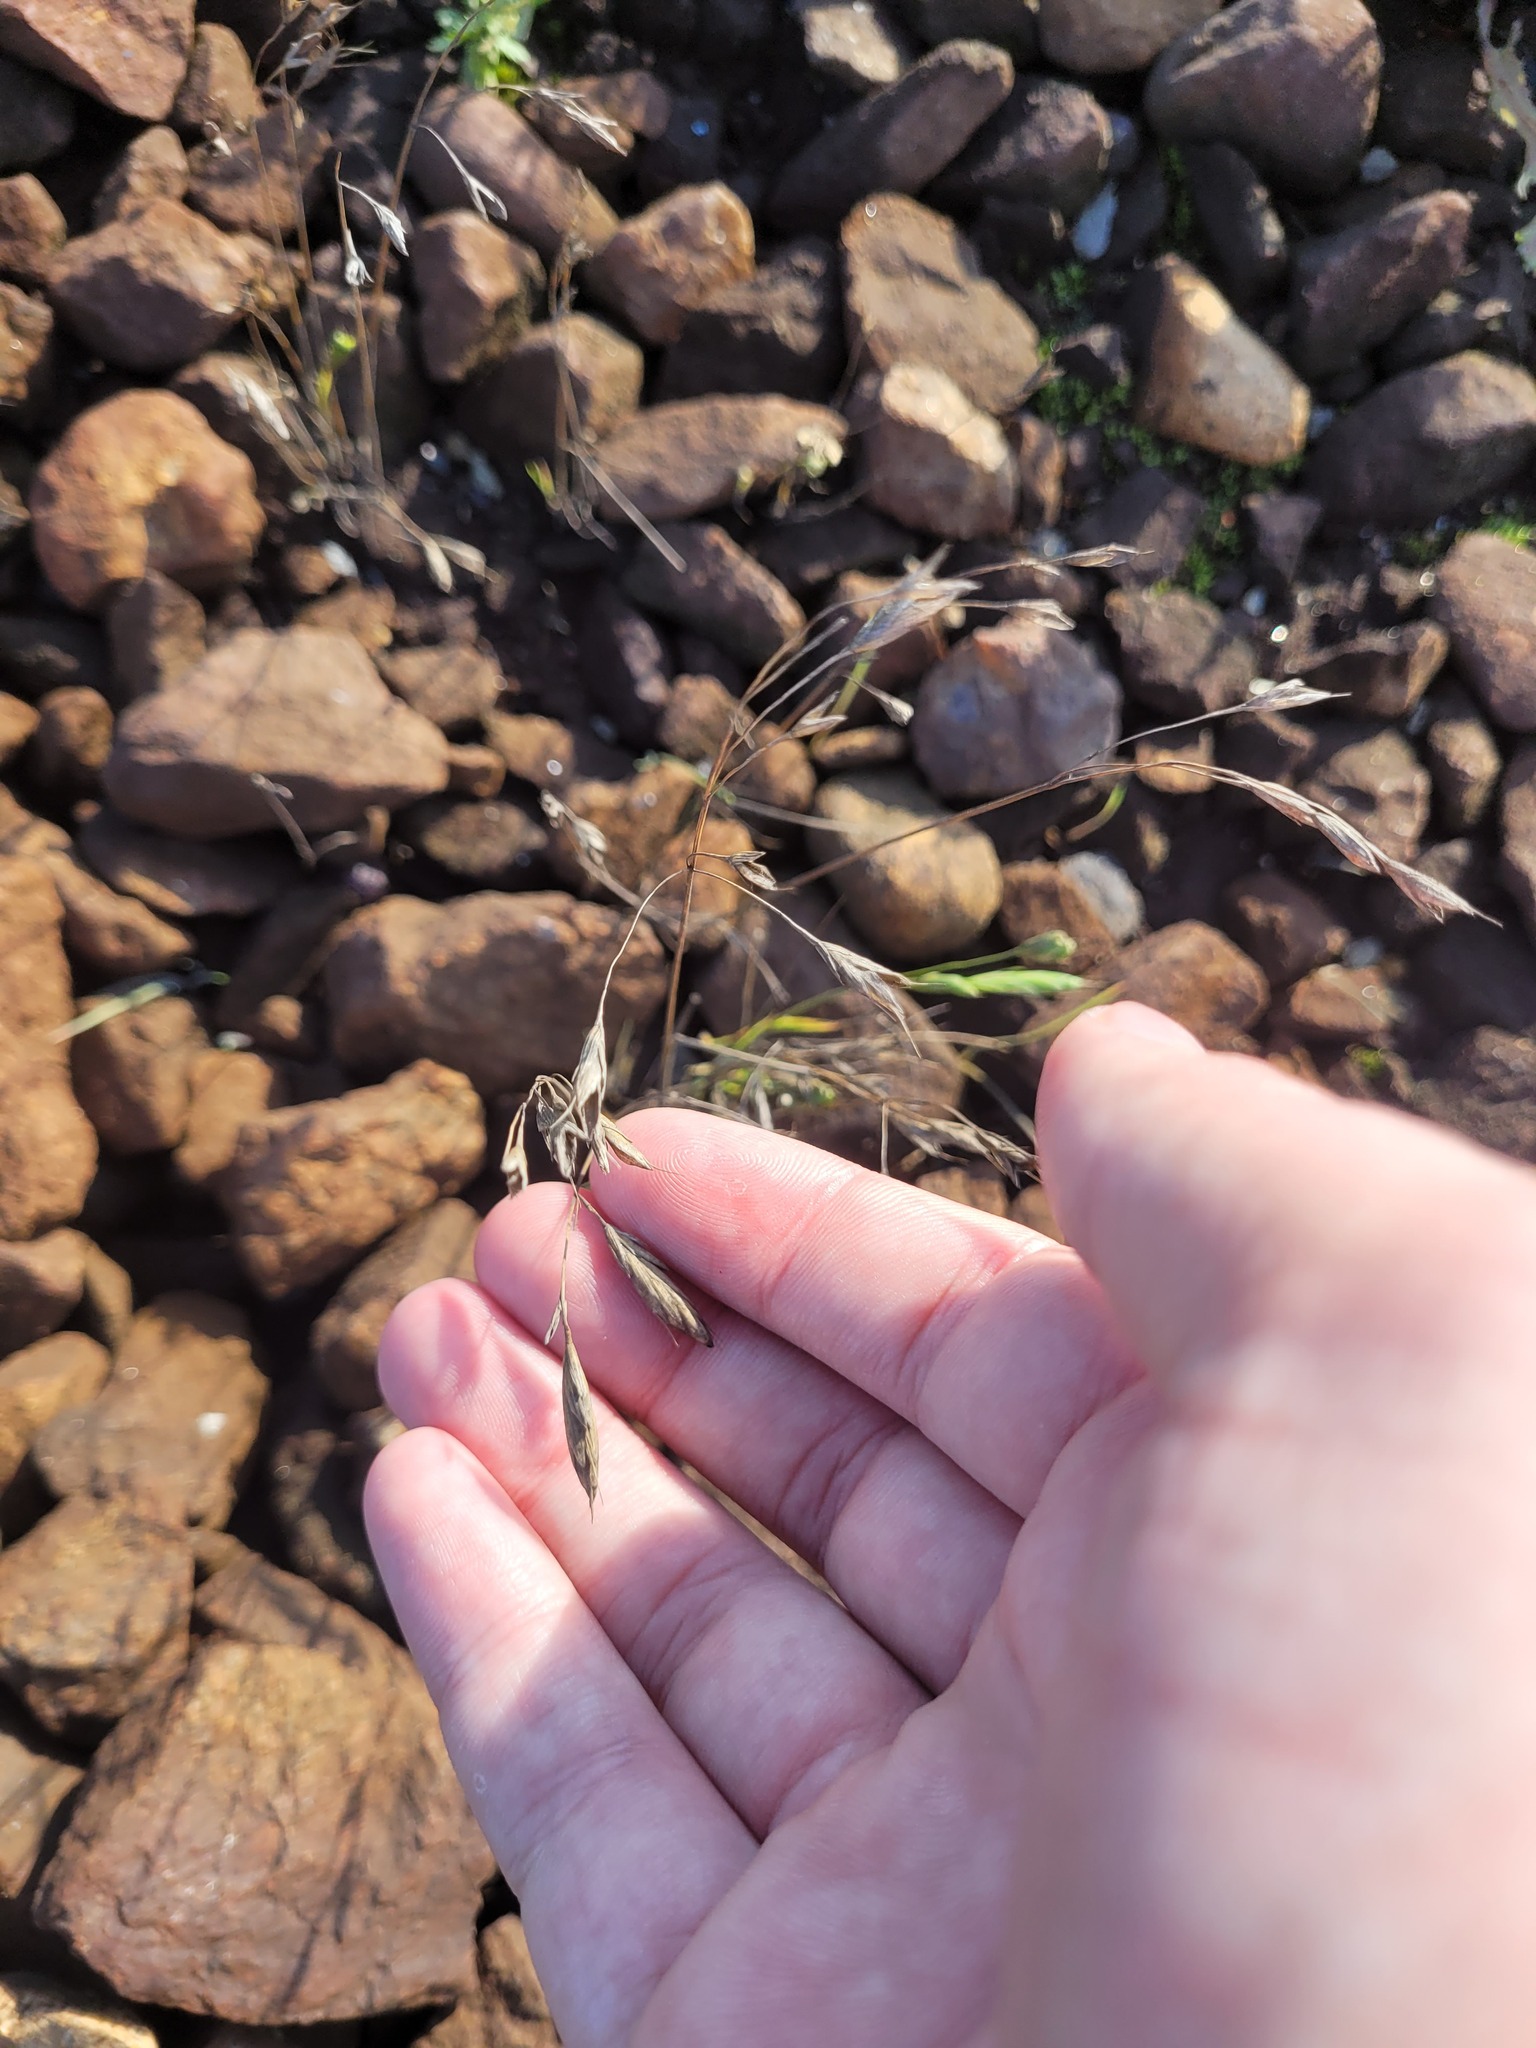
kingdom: Plantae
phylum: Tracheophyta
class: Liliopsida
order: Poales
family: Poaceae
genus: Bromus
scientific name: Bromus squarrosus
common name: Corn brome
